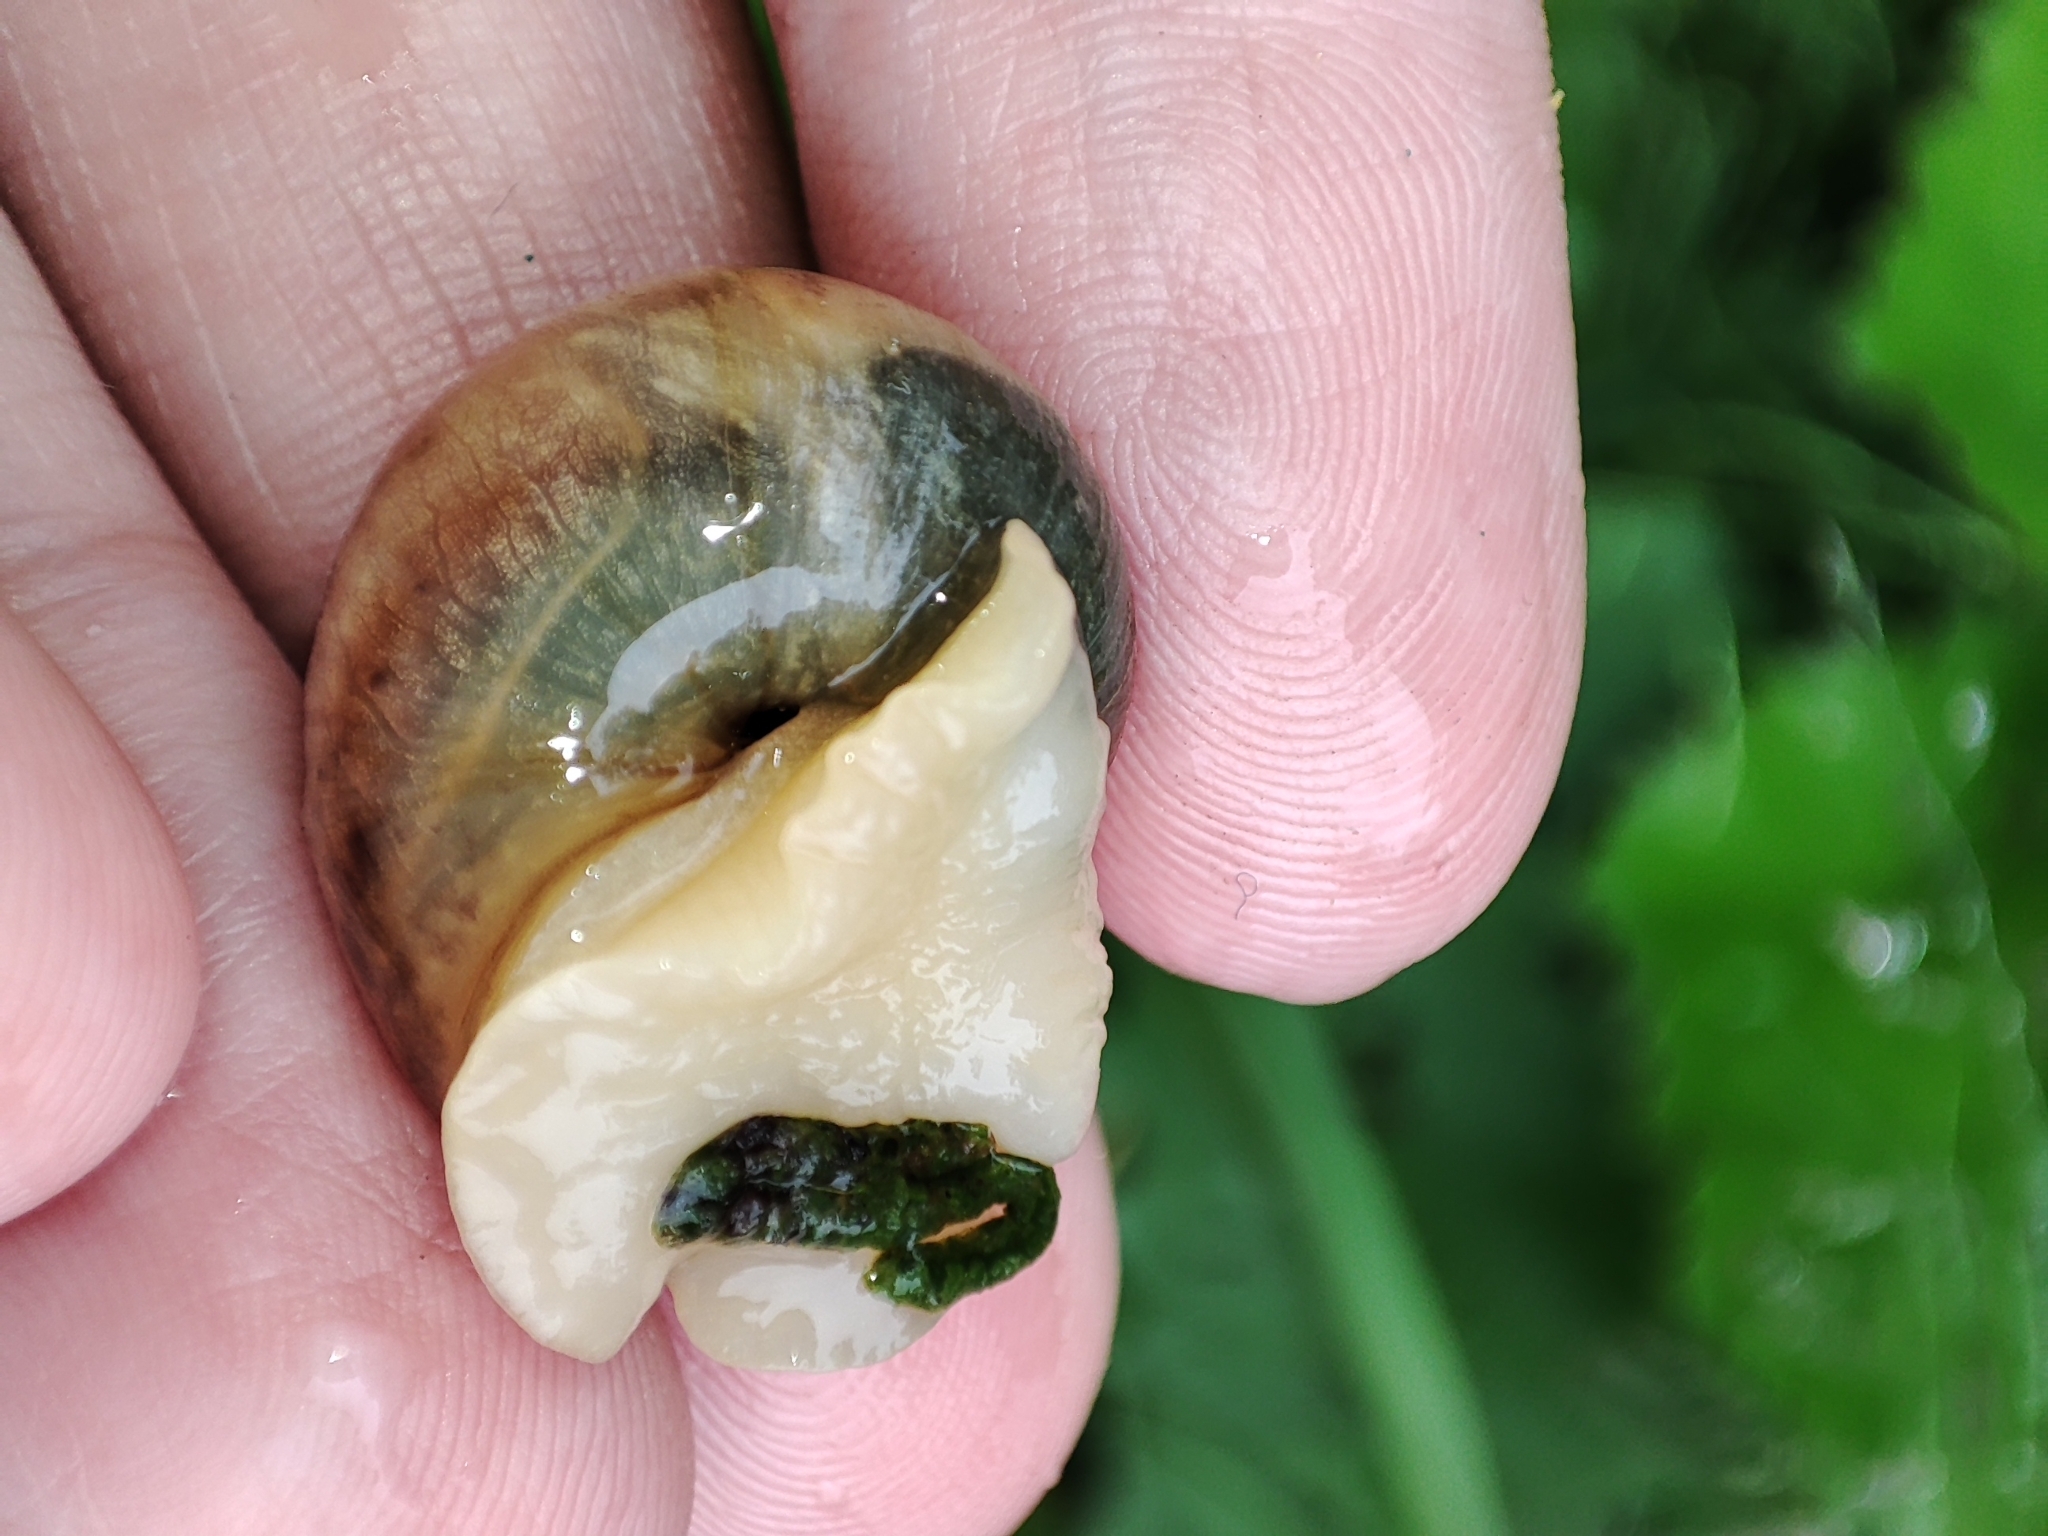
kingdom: Animalia
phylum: Mollusca
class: Gastropoda
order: Stylommatophora
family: Helicidae
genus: Helix
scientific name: Helix pomatia
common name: Roman snail
